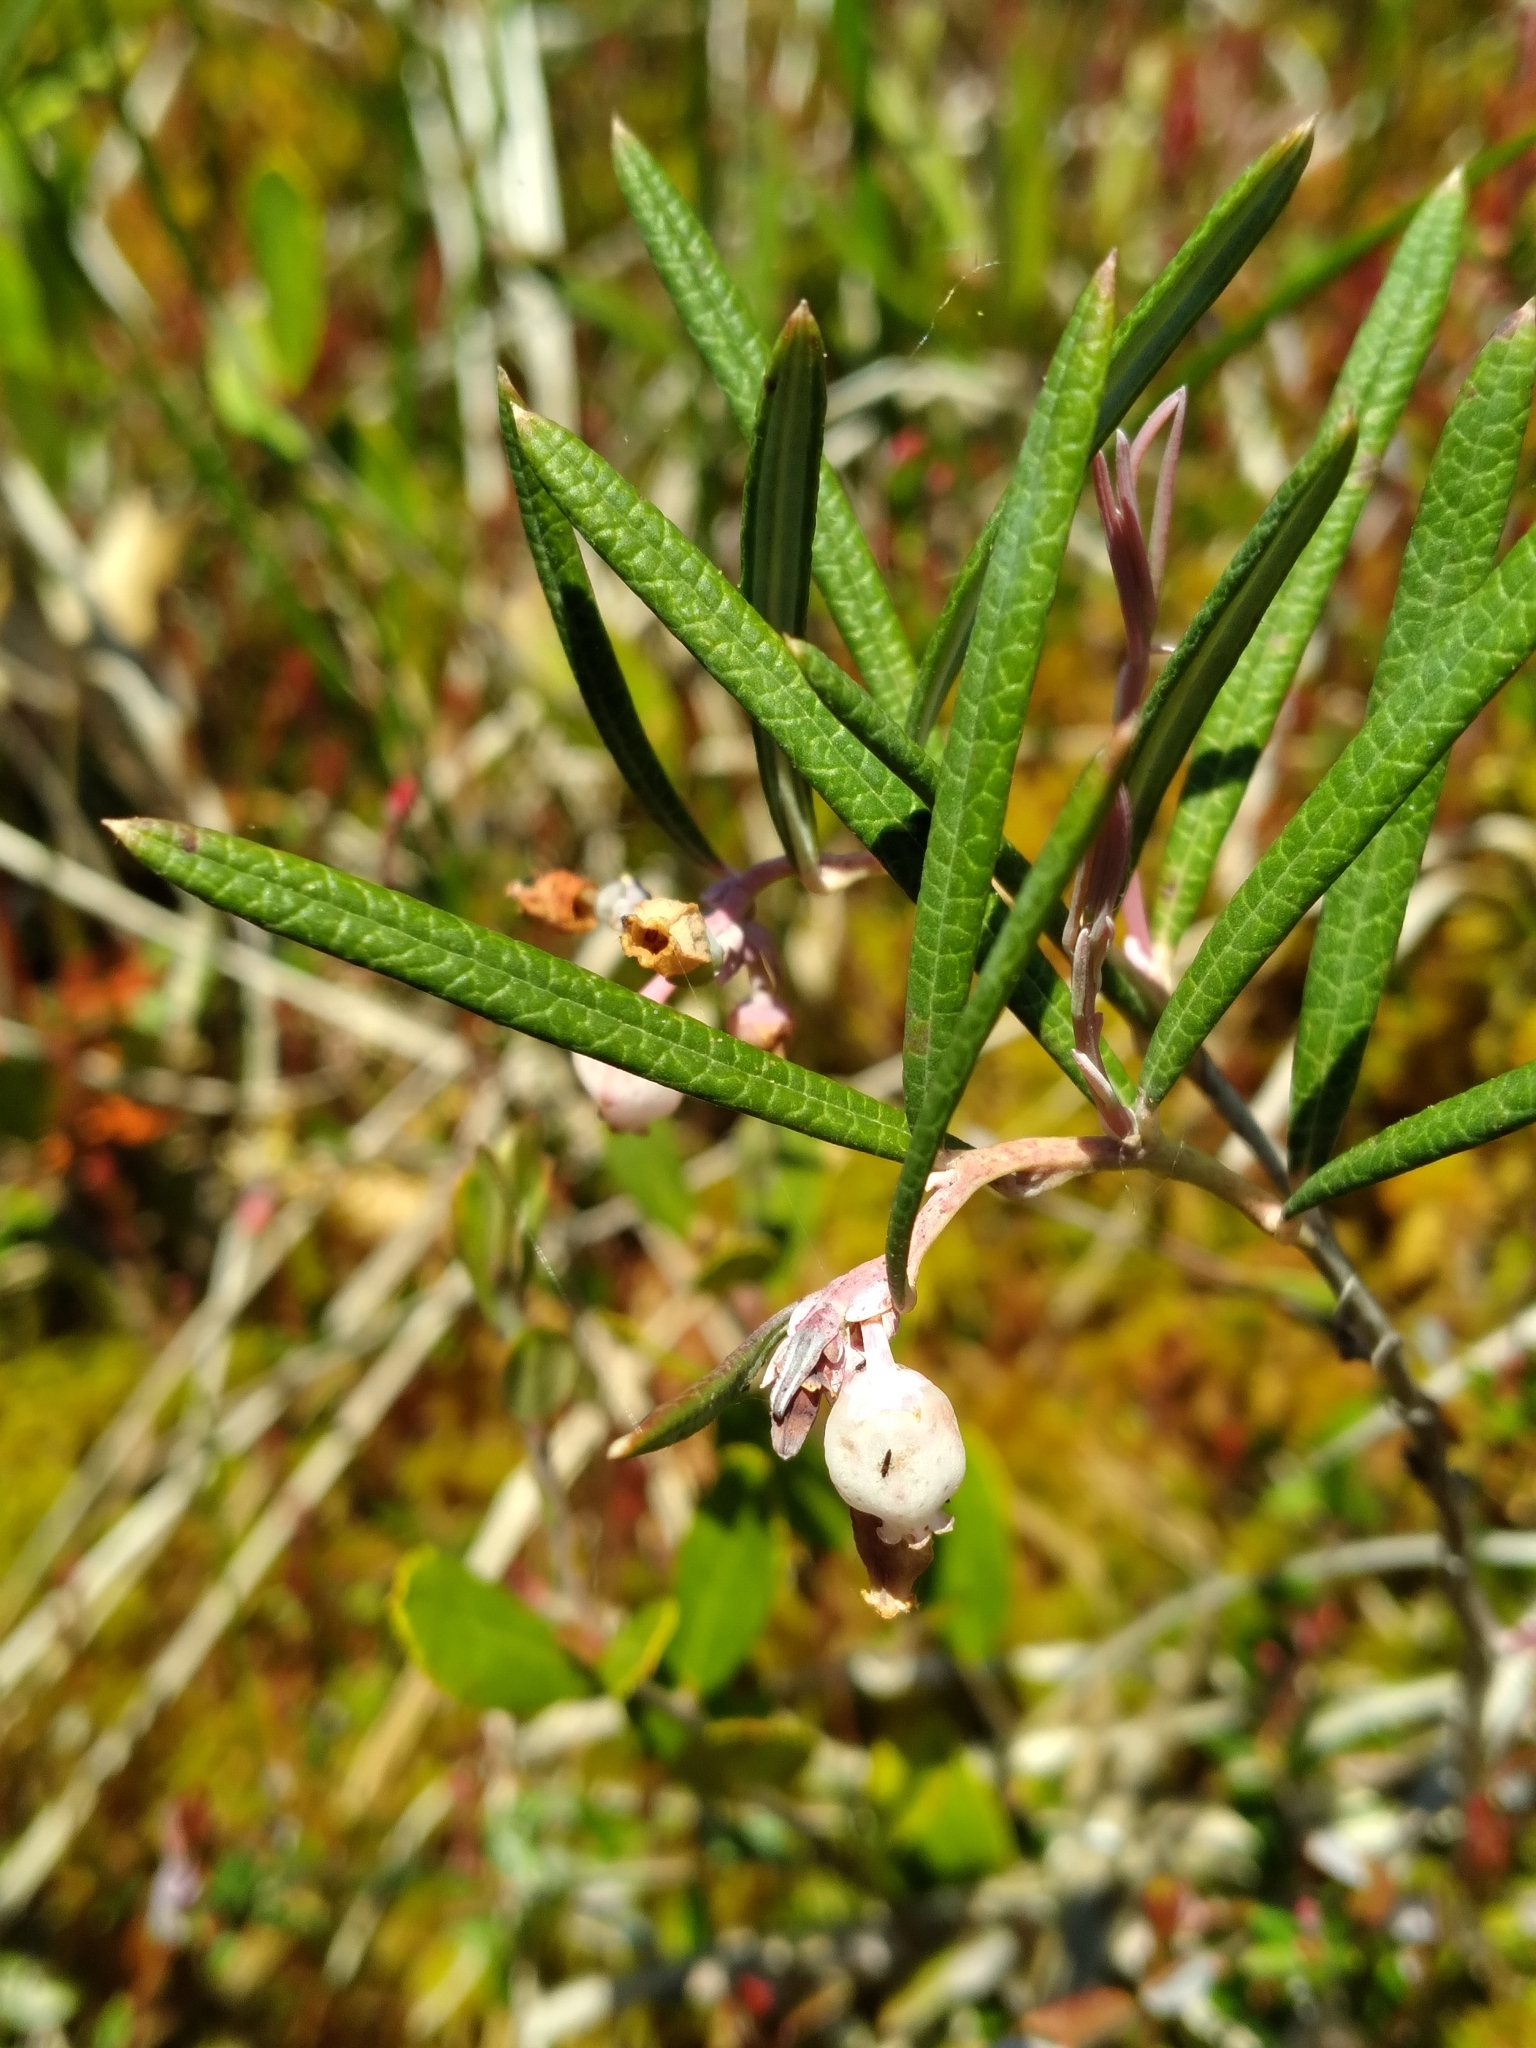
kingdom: Plantae
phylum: Tracheophyta
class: Magnoliopsida
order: Ericales
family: Ericaceae
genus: Andromeda
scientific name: Andromeda polifolia
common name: Bog-rosemary
